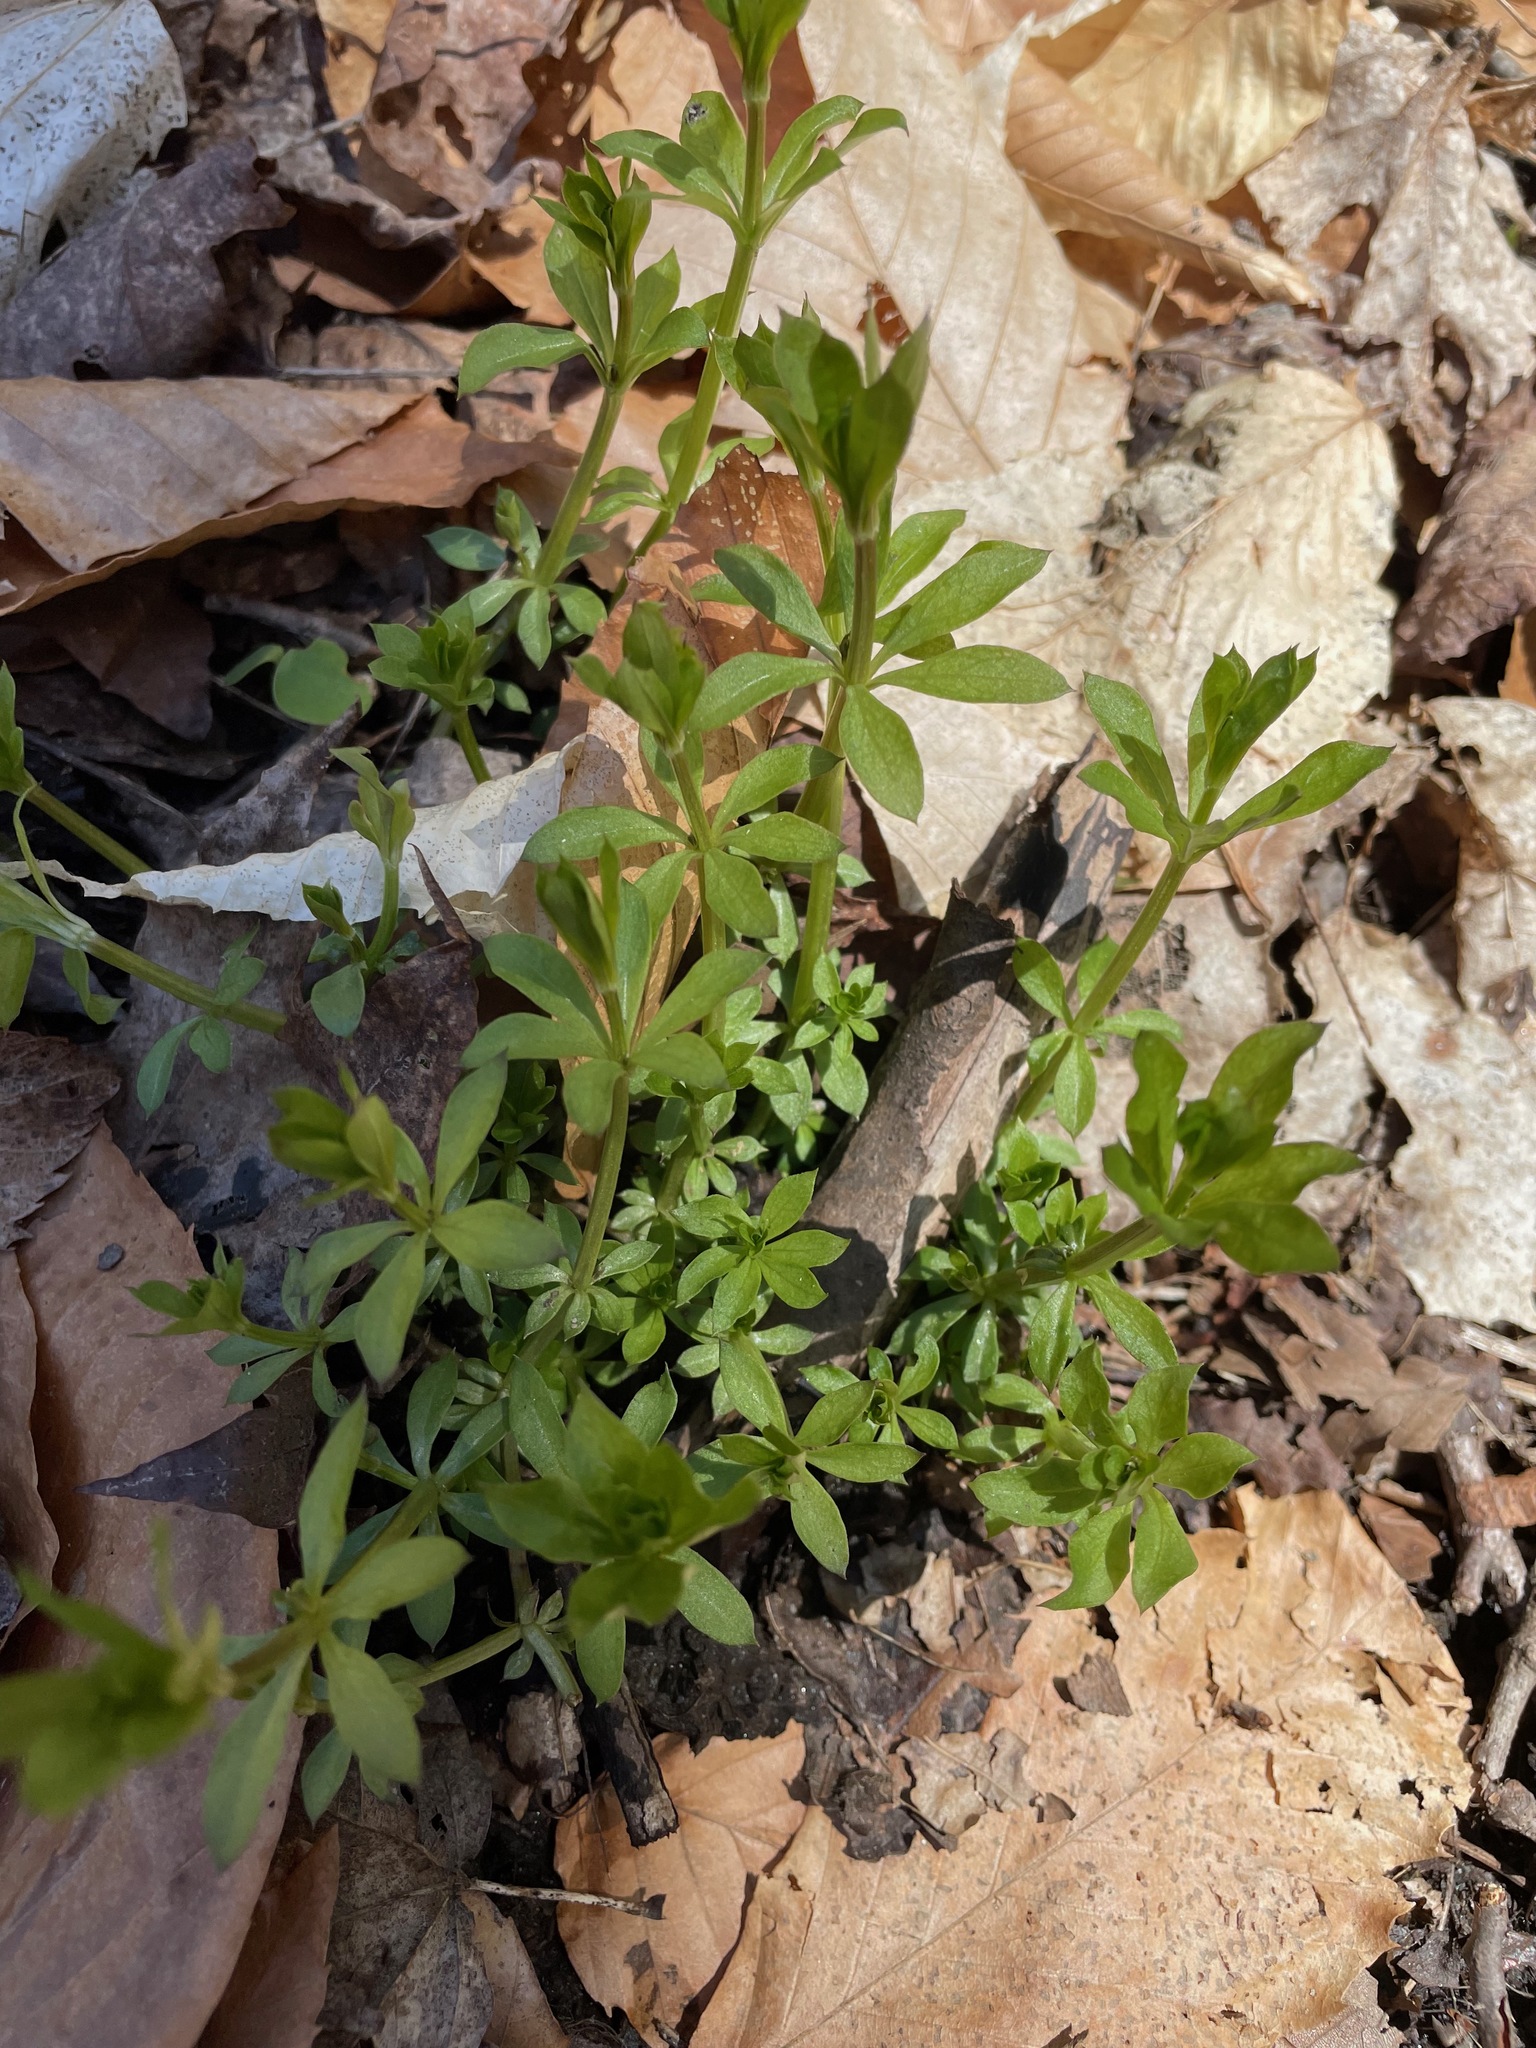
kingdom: Plantae
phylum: Tracheophyta
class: Magnoliopsida
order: Gentianales
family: Rubiaceae
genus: Galium
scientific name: Galium triflorum
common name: Fragrant bedstraw
